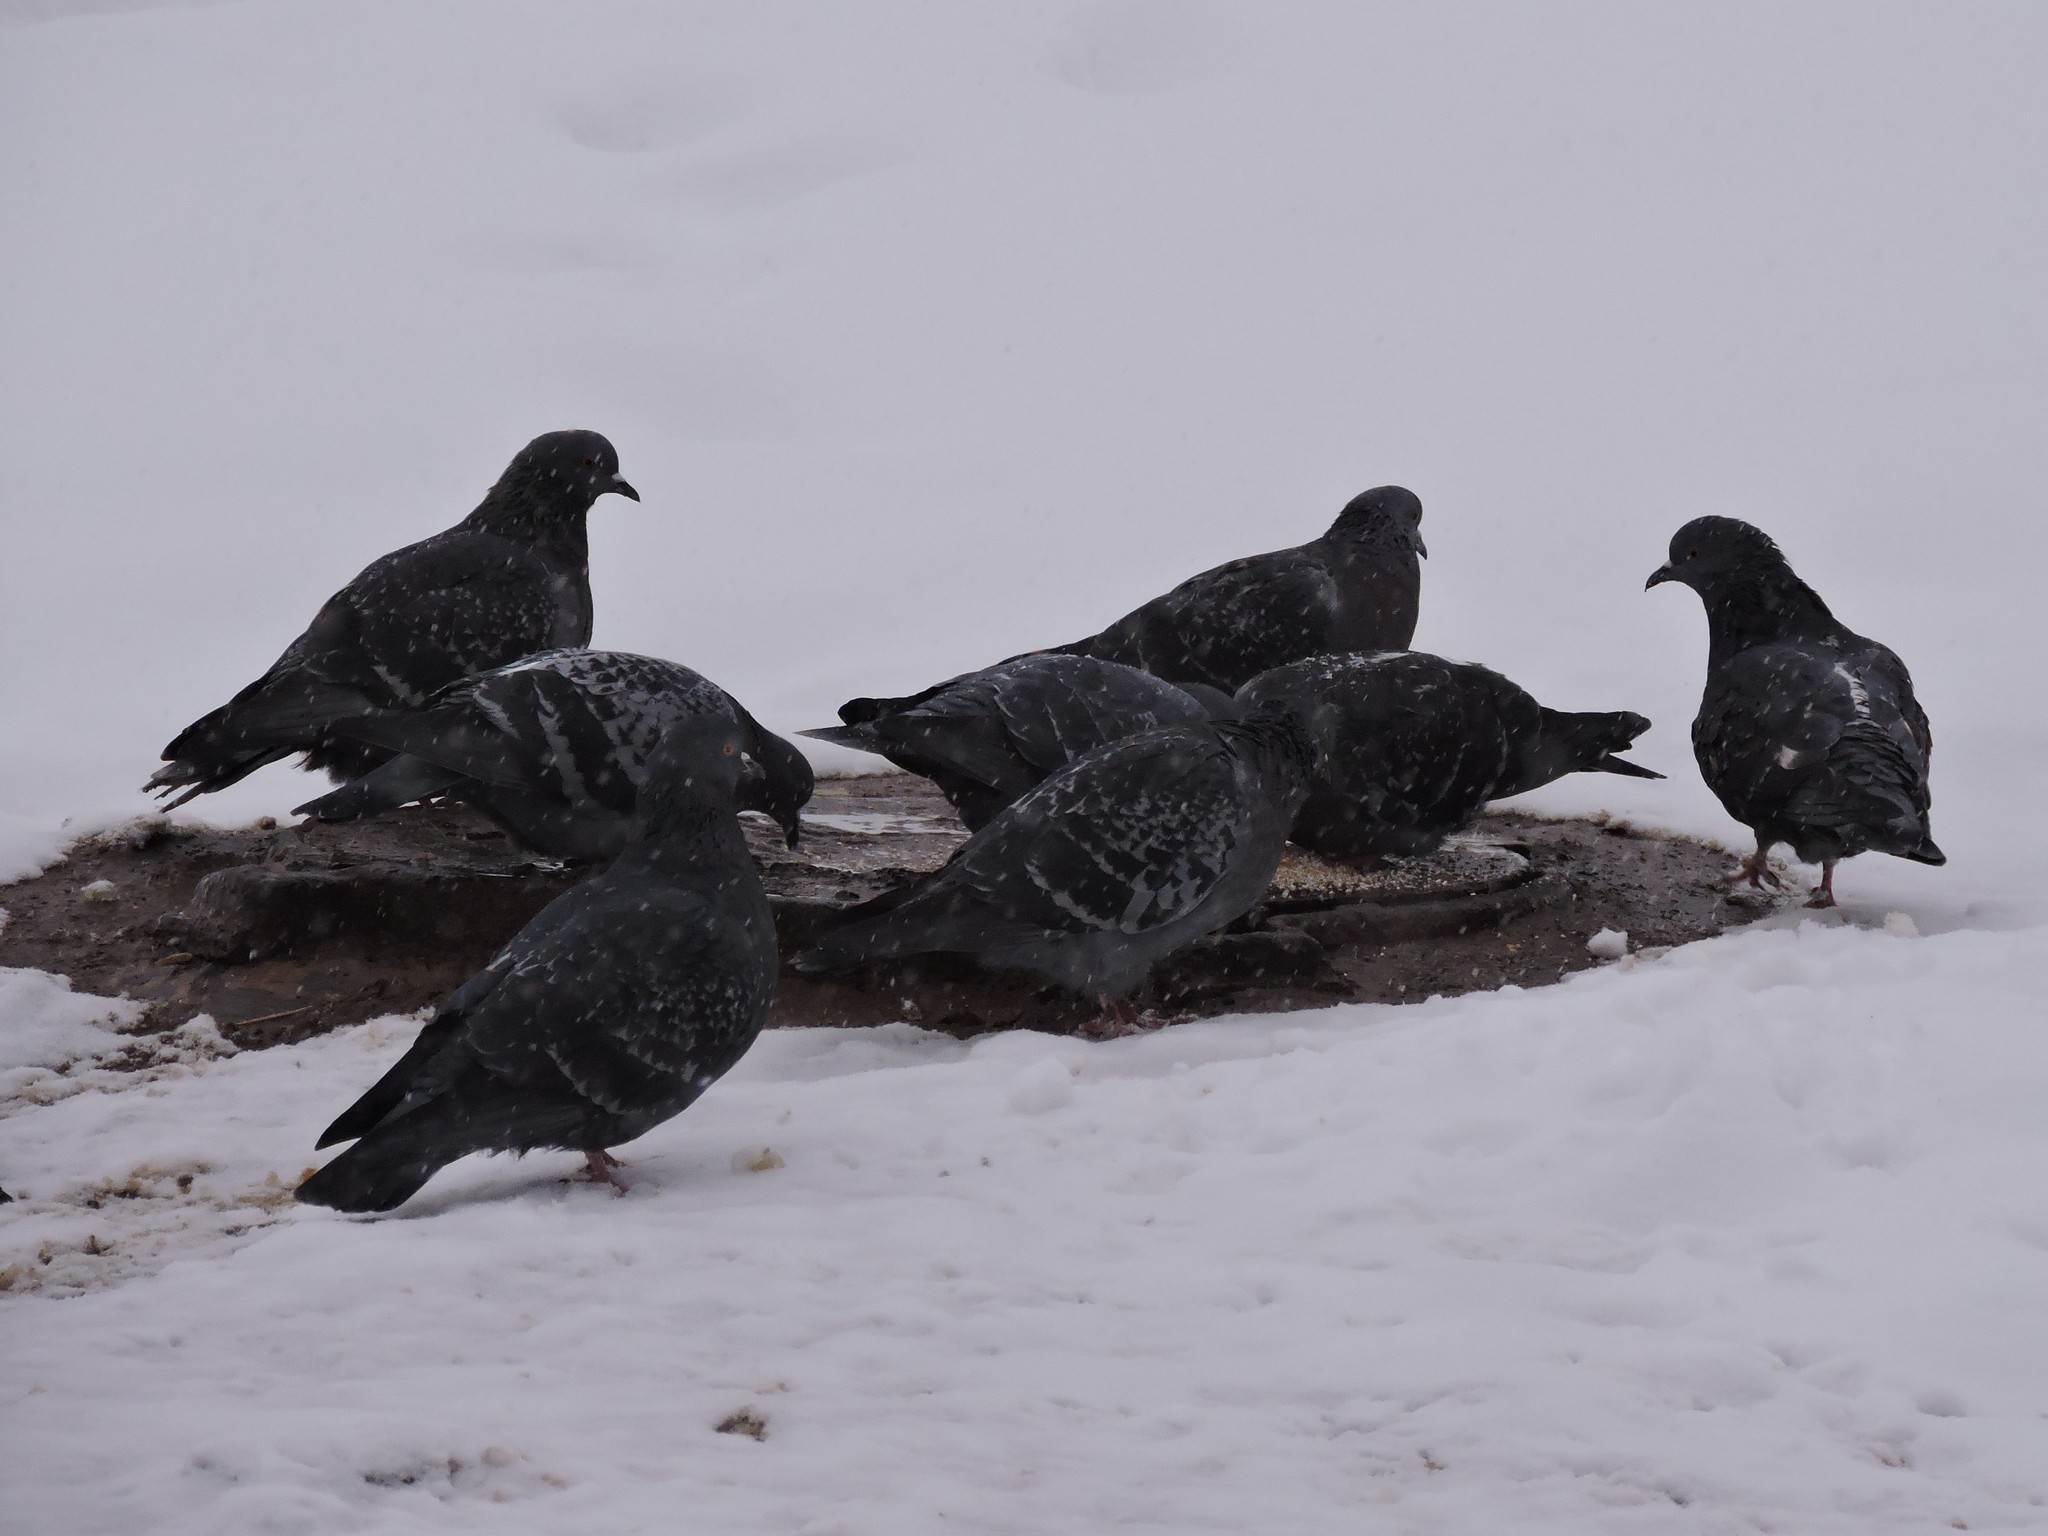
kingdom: Animalia
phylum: Chordata
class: Aves
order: Columbiformes
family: Columbidae
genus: Columba
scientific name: Columba livia
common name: Rock pigeon
